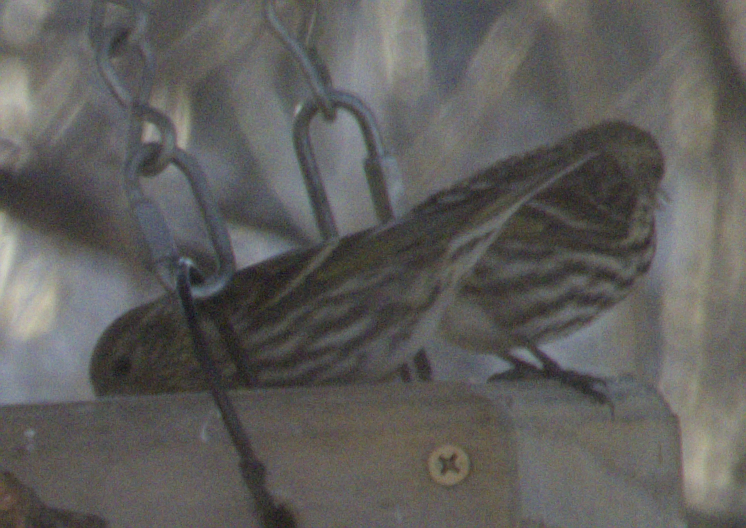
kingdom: Animalia
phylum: Chordata
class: Aves
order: Passeriformes
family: Fringillidae
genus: Spinus
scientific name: Spinus pinus
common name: Pine siskin
